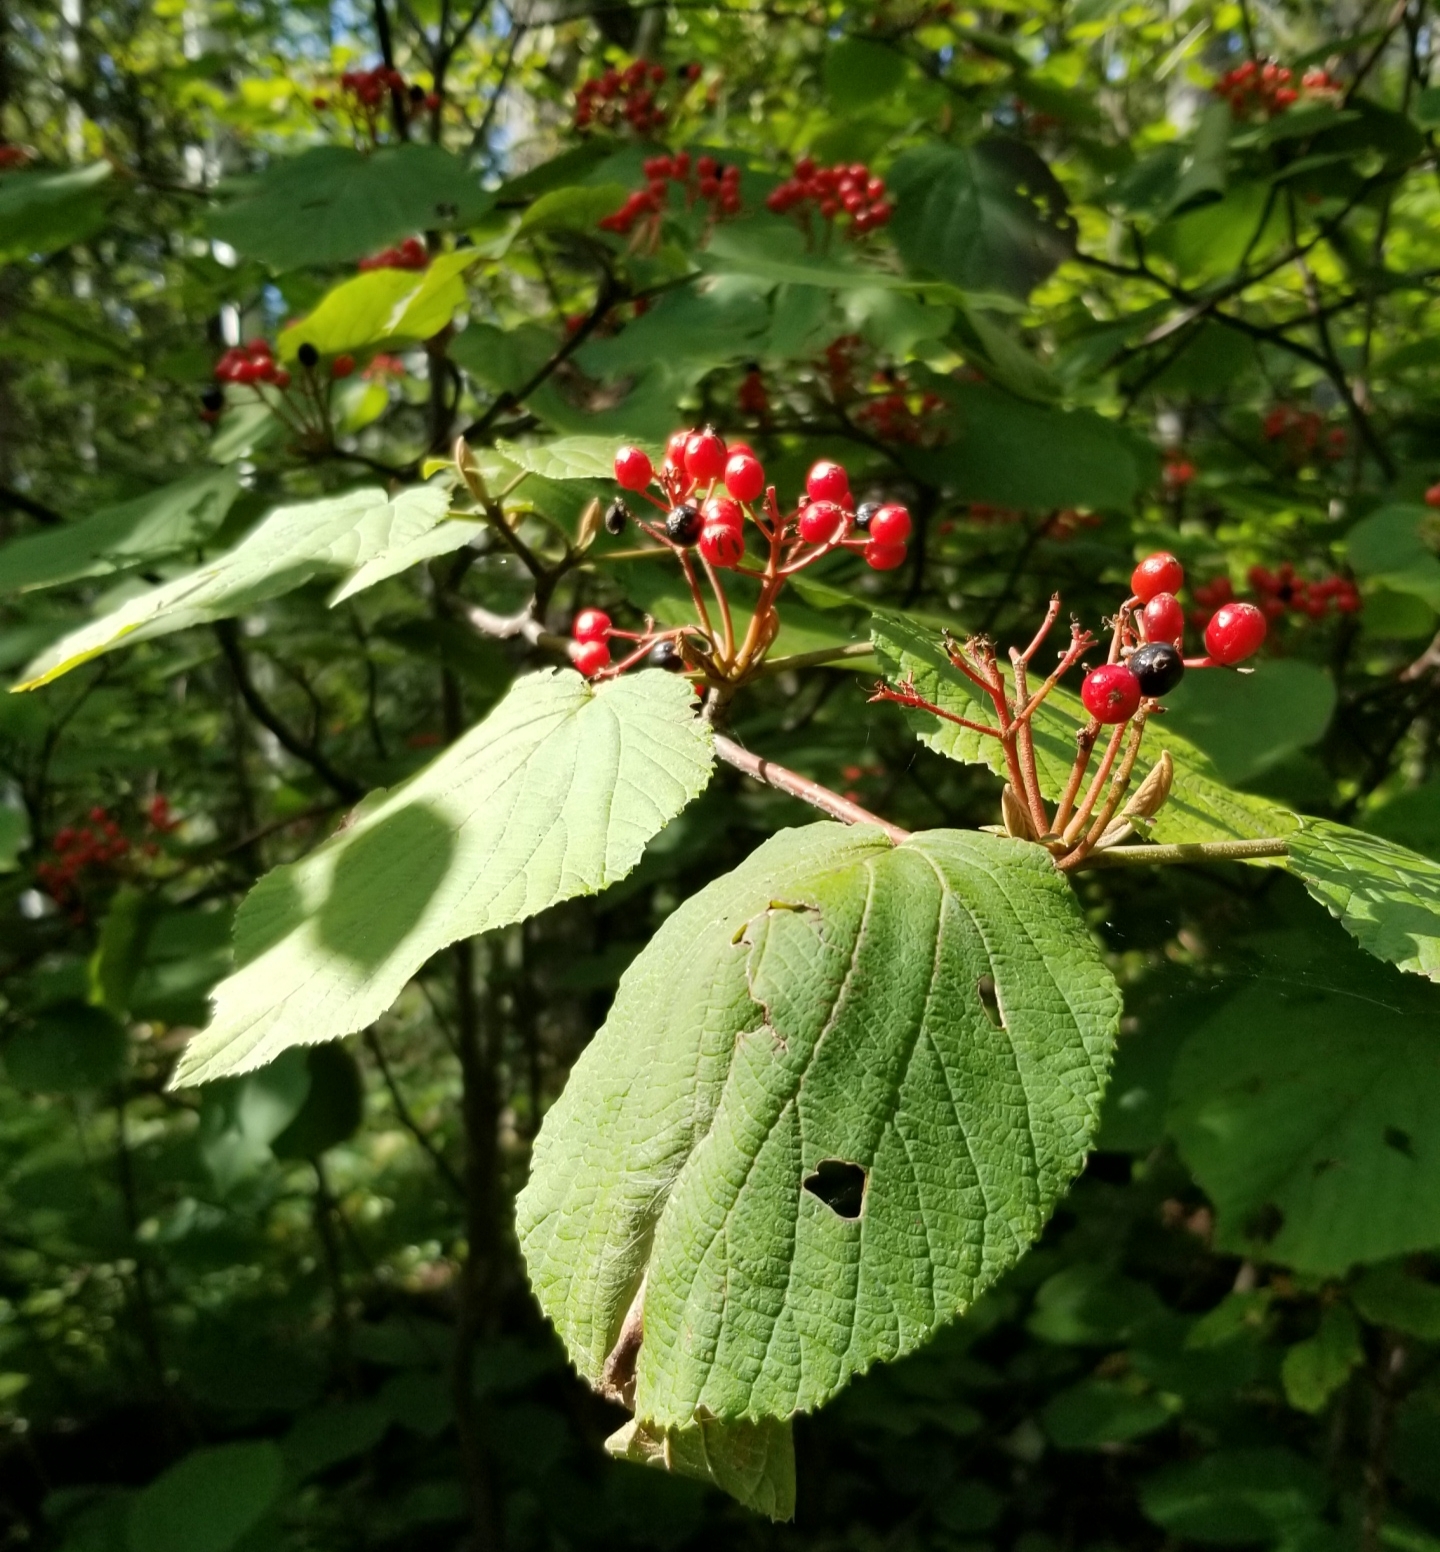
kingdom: Plantae
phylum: Tracheophyta
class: Magnoliopsida
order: Dipsacales
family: Viburnaceae
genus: Viburnum
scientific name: Viburnum lantanoides
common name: Hobblebush
